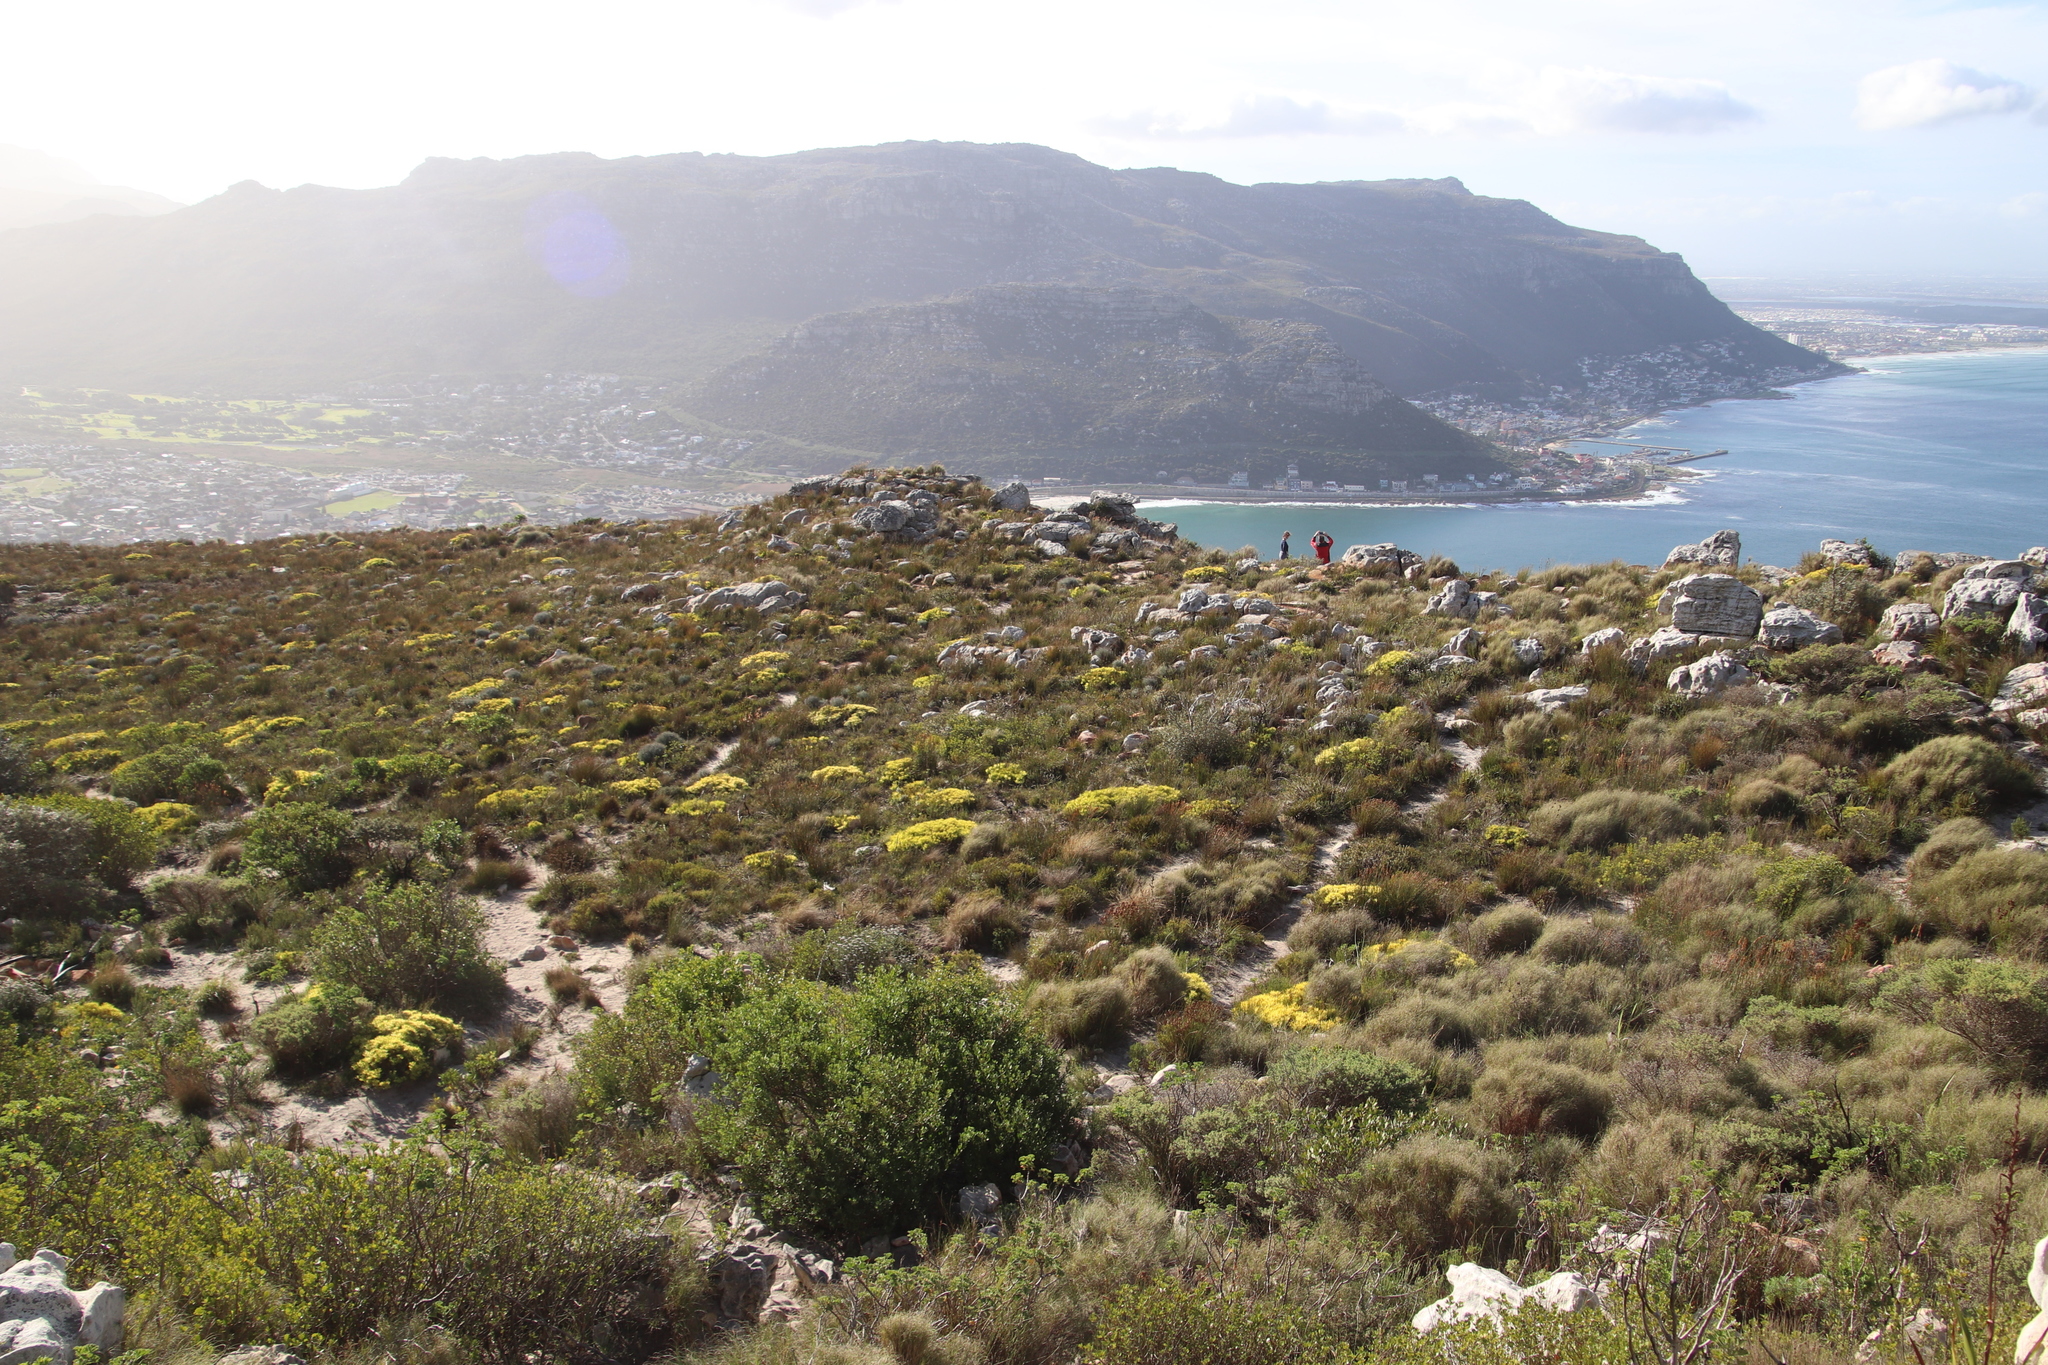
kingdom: Plantae
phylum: Tracheophyta
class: Magnoliopsida
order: Proteales
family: Proteaceae
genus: Leucadendron
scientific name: Leucadendron salignum
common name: Common sunshine conebush
